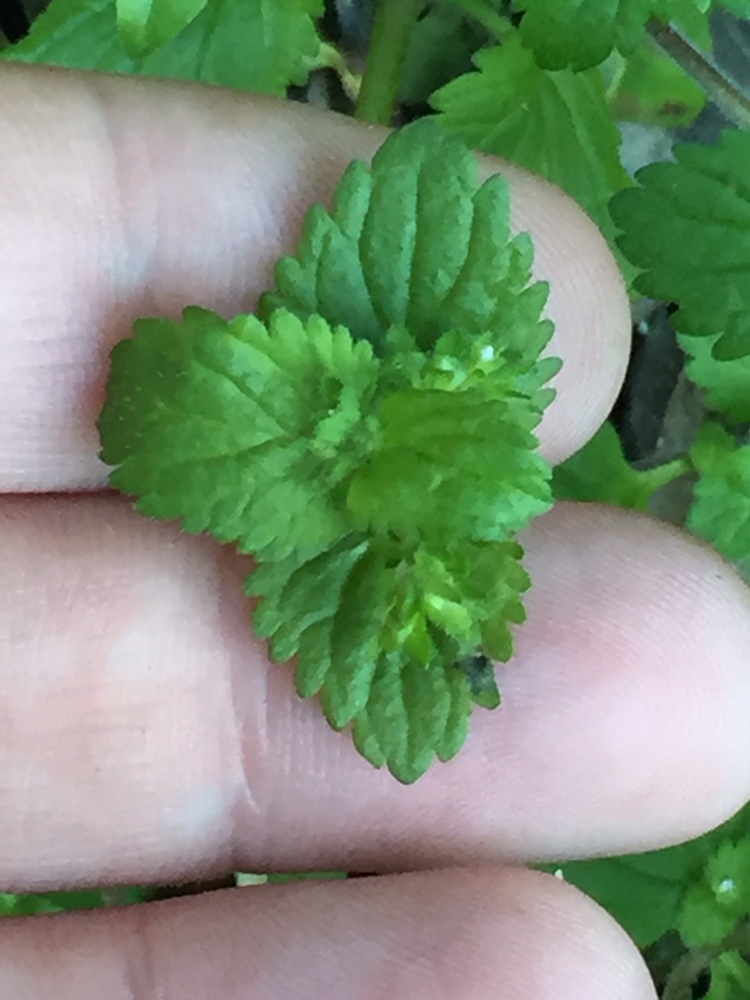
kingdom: Plantae
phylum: Tracheophyta
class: Magnoliopsida
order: Lamiales
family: Plantaginaceae
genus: Veronica
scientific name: Veronica javanica
